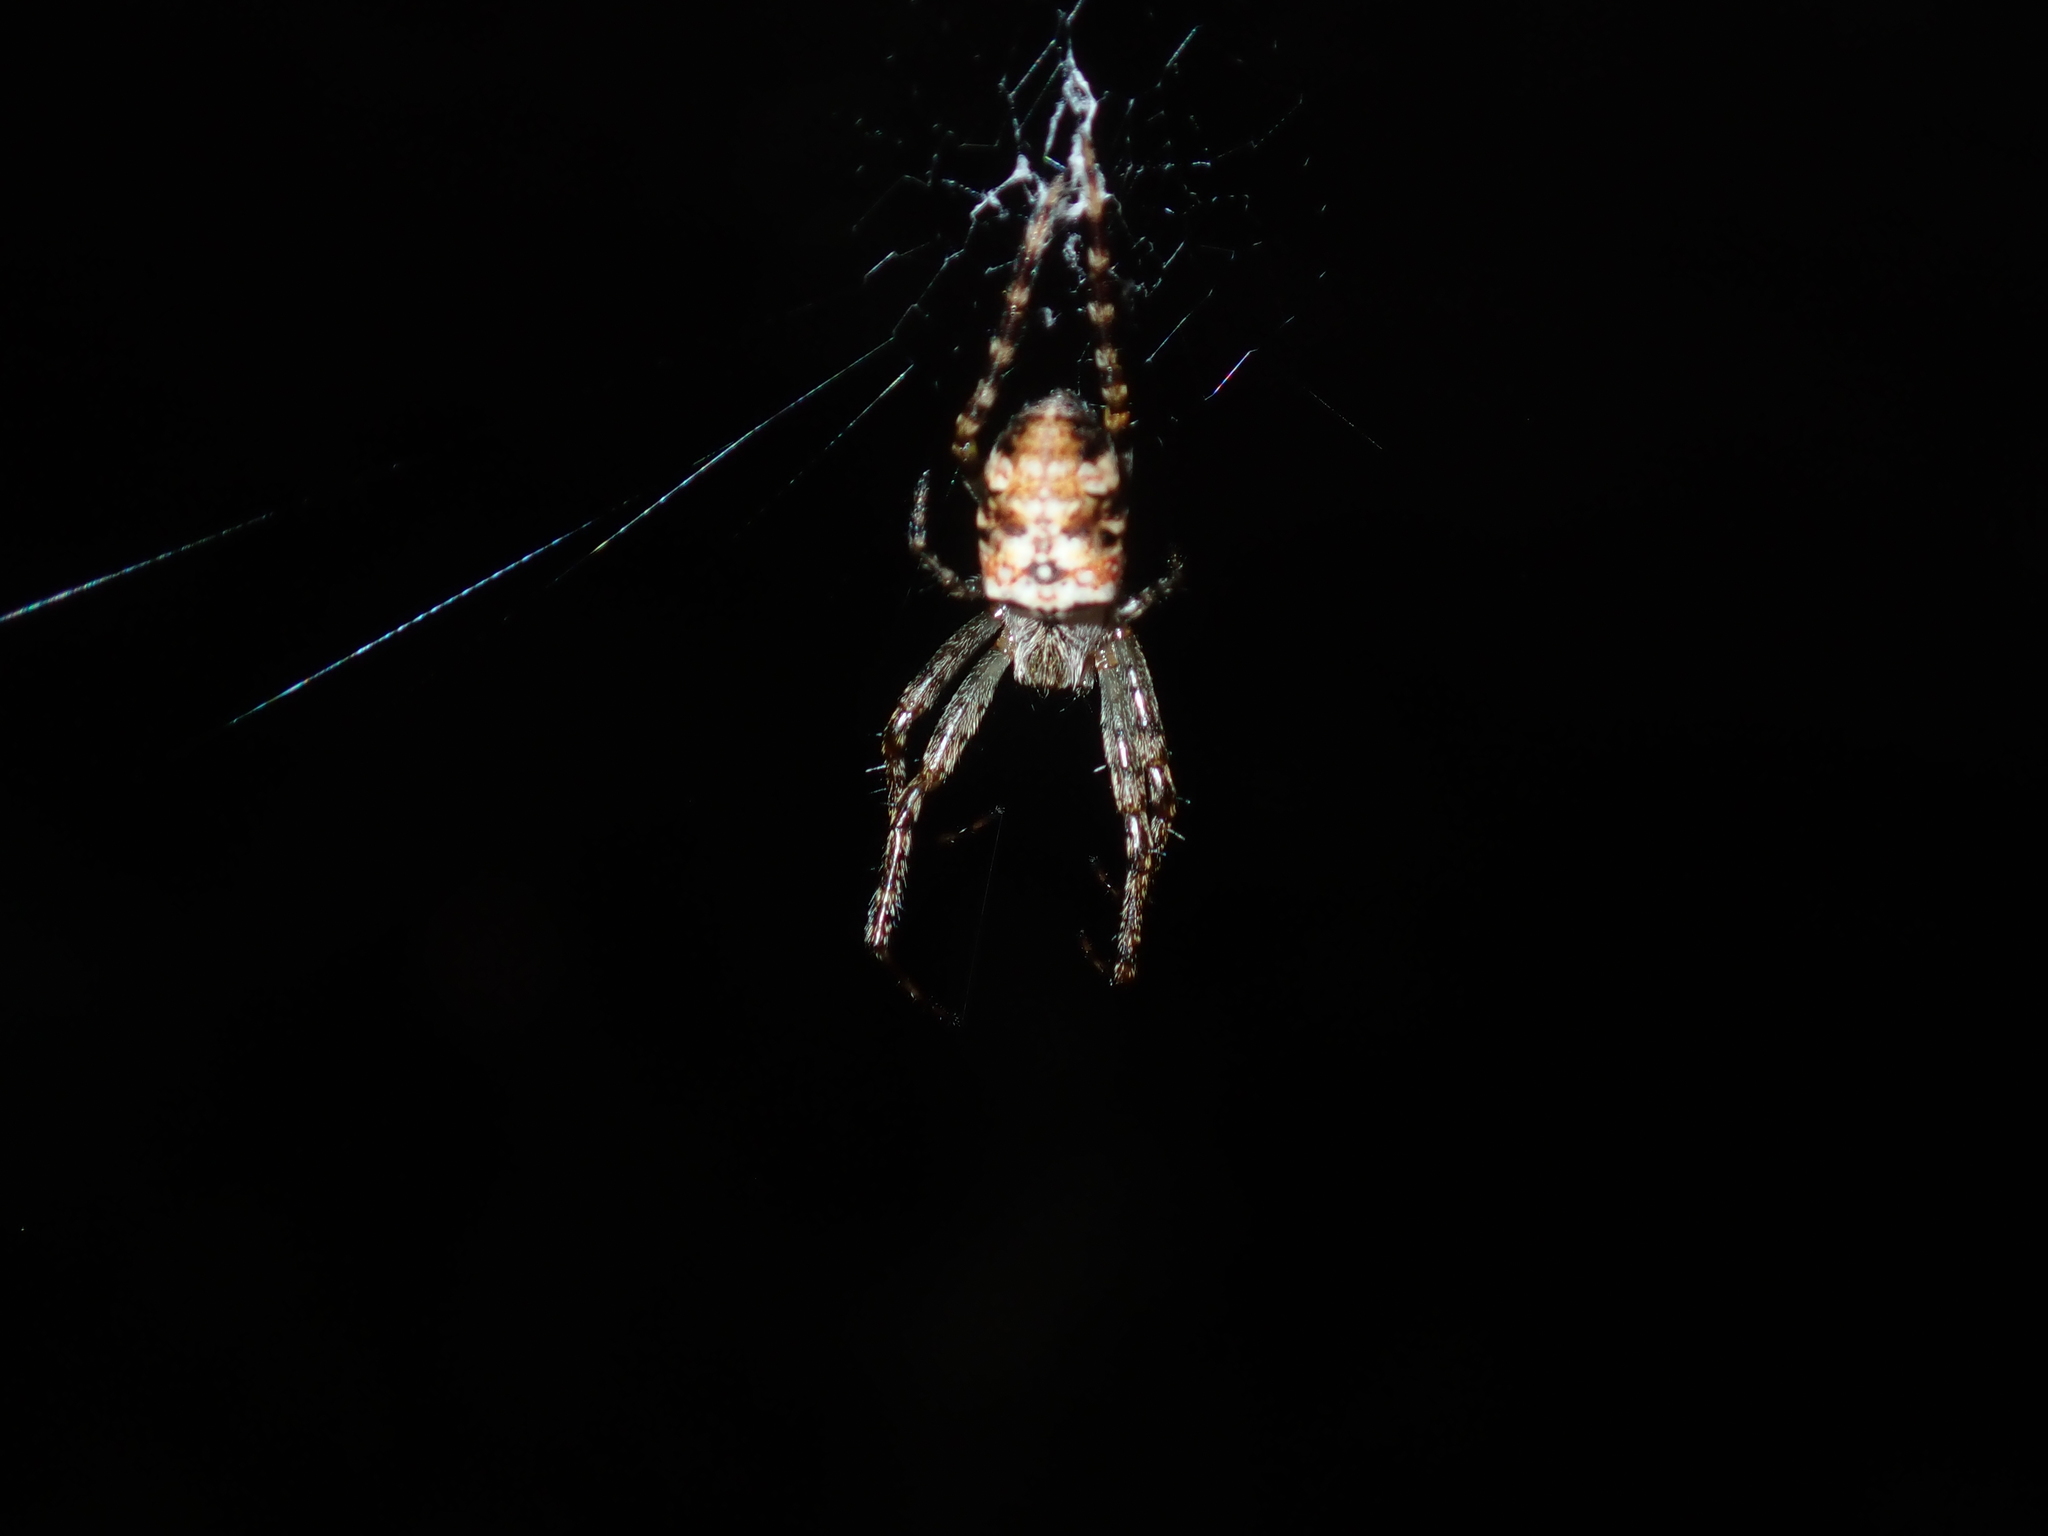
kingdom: Animalia
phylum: Arthropoda
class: Arachnida
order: Araneae
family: Araneidae
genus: Plebs
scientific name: Plebs eburnus
